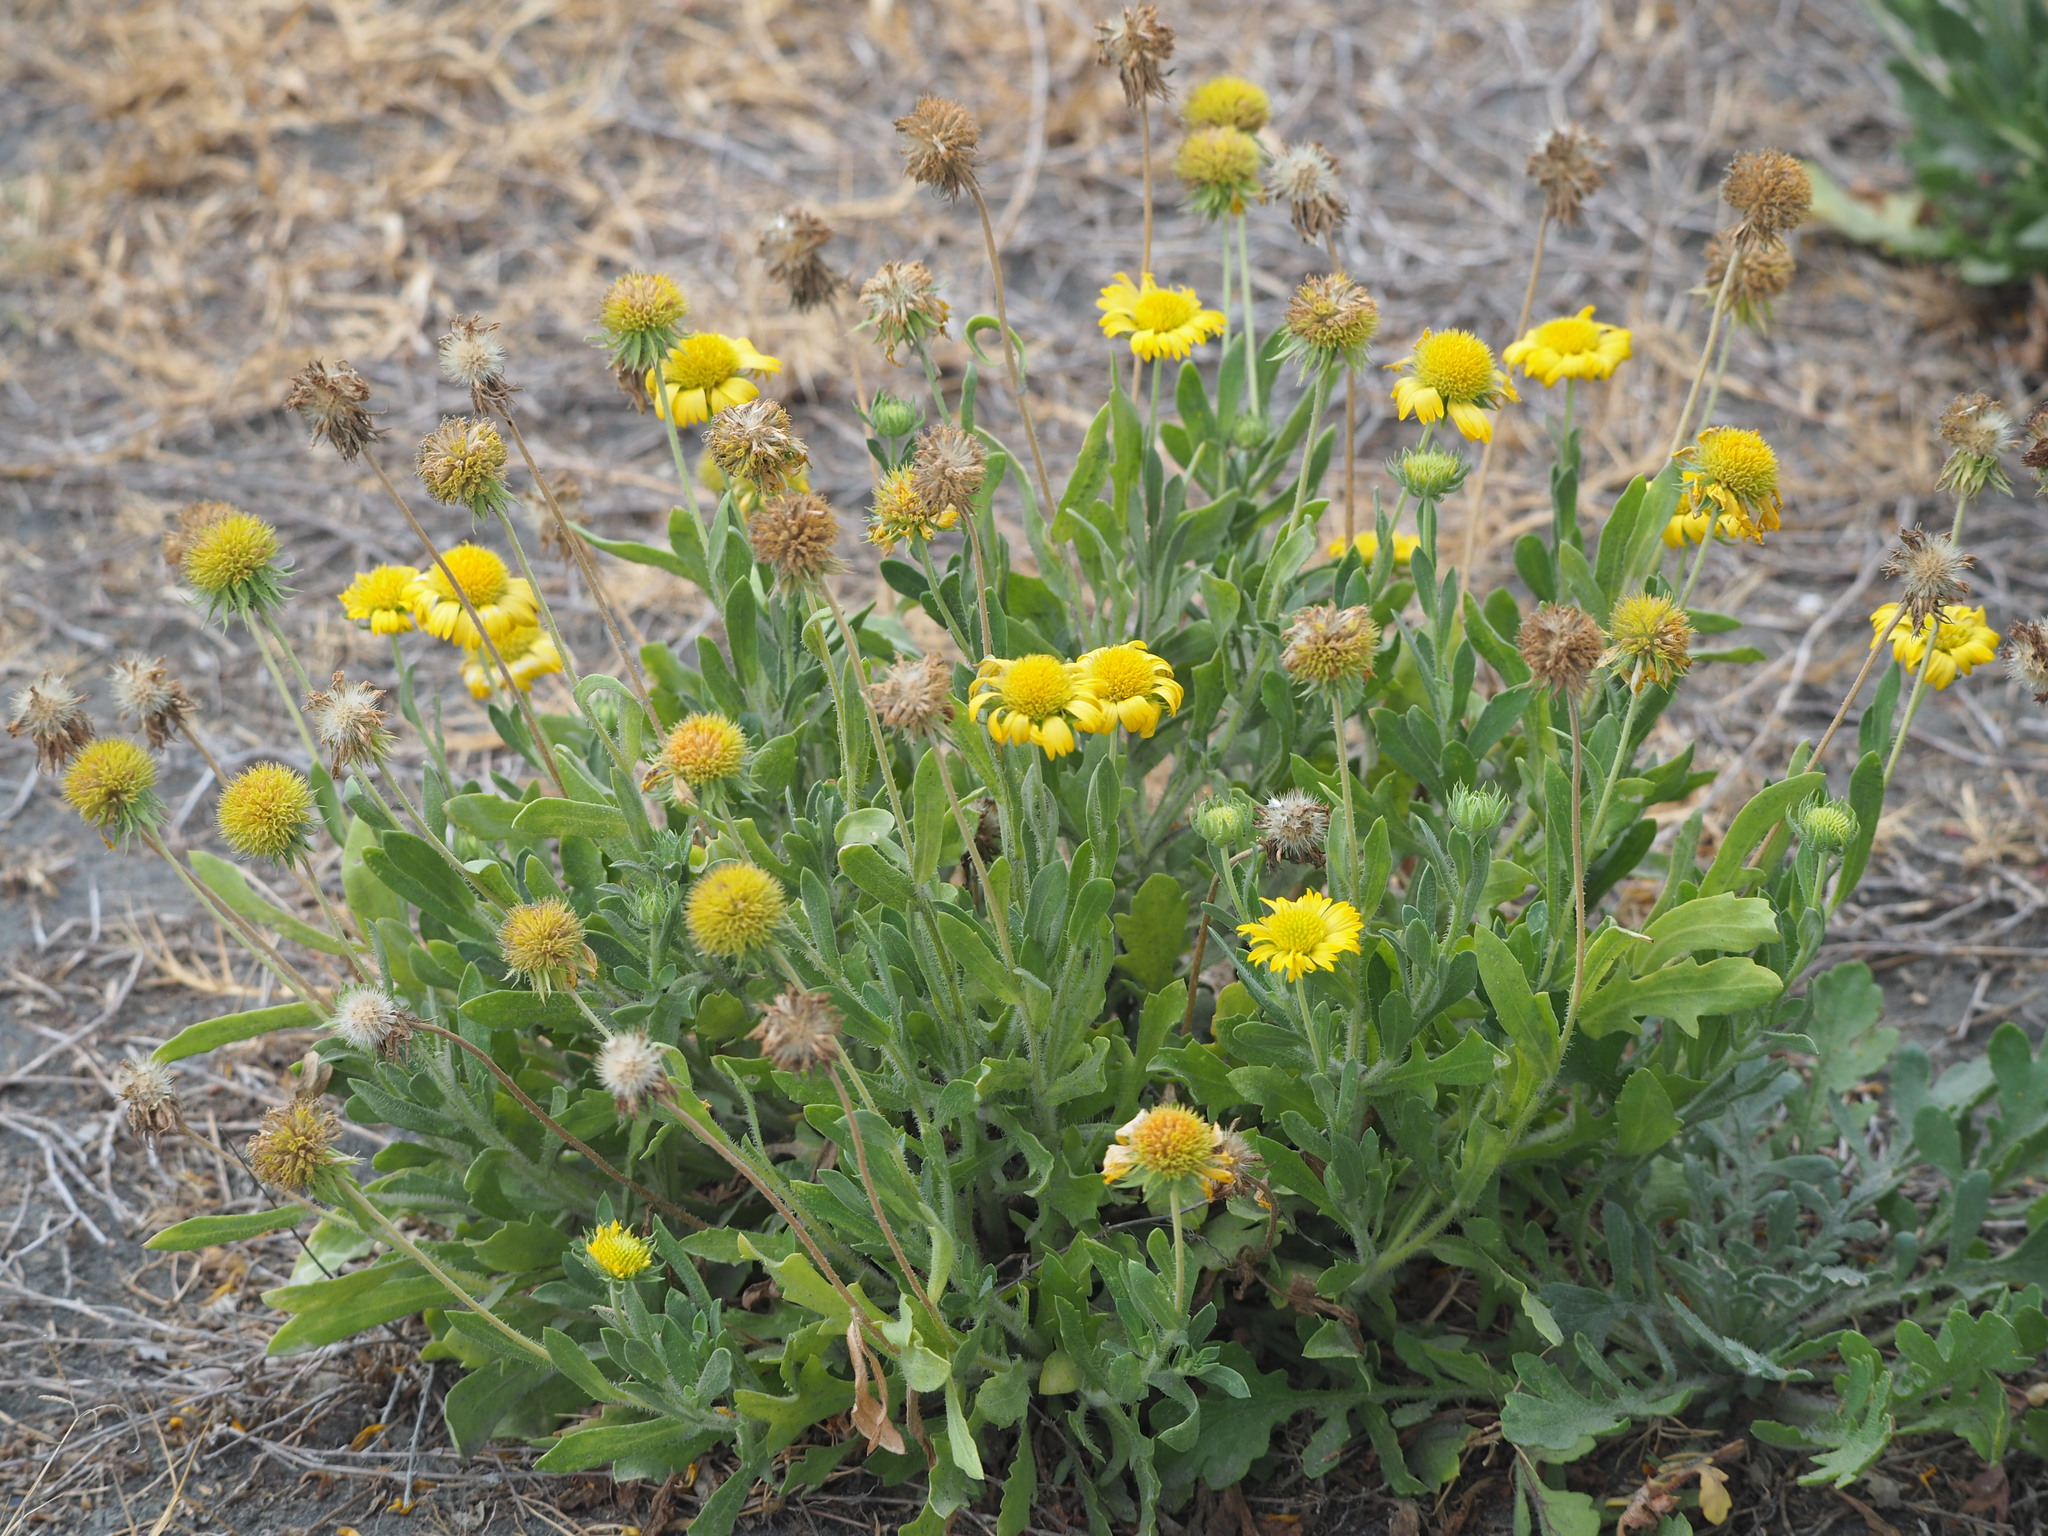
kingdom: Plantae
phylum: Tracheophyta
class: Magnoliopsida
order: Asterales
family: Asteraceae
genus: Gaillardia
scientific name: Gaillardia pulchella
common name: Firewheel
